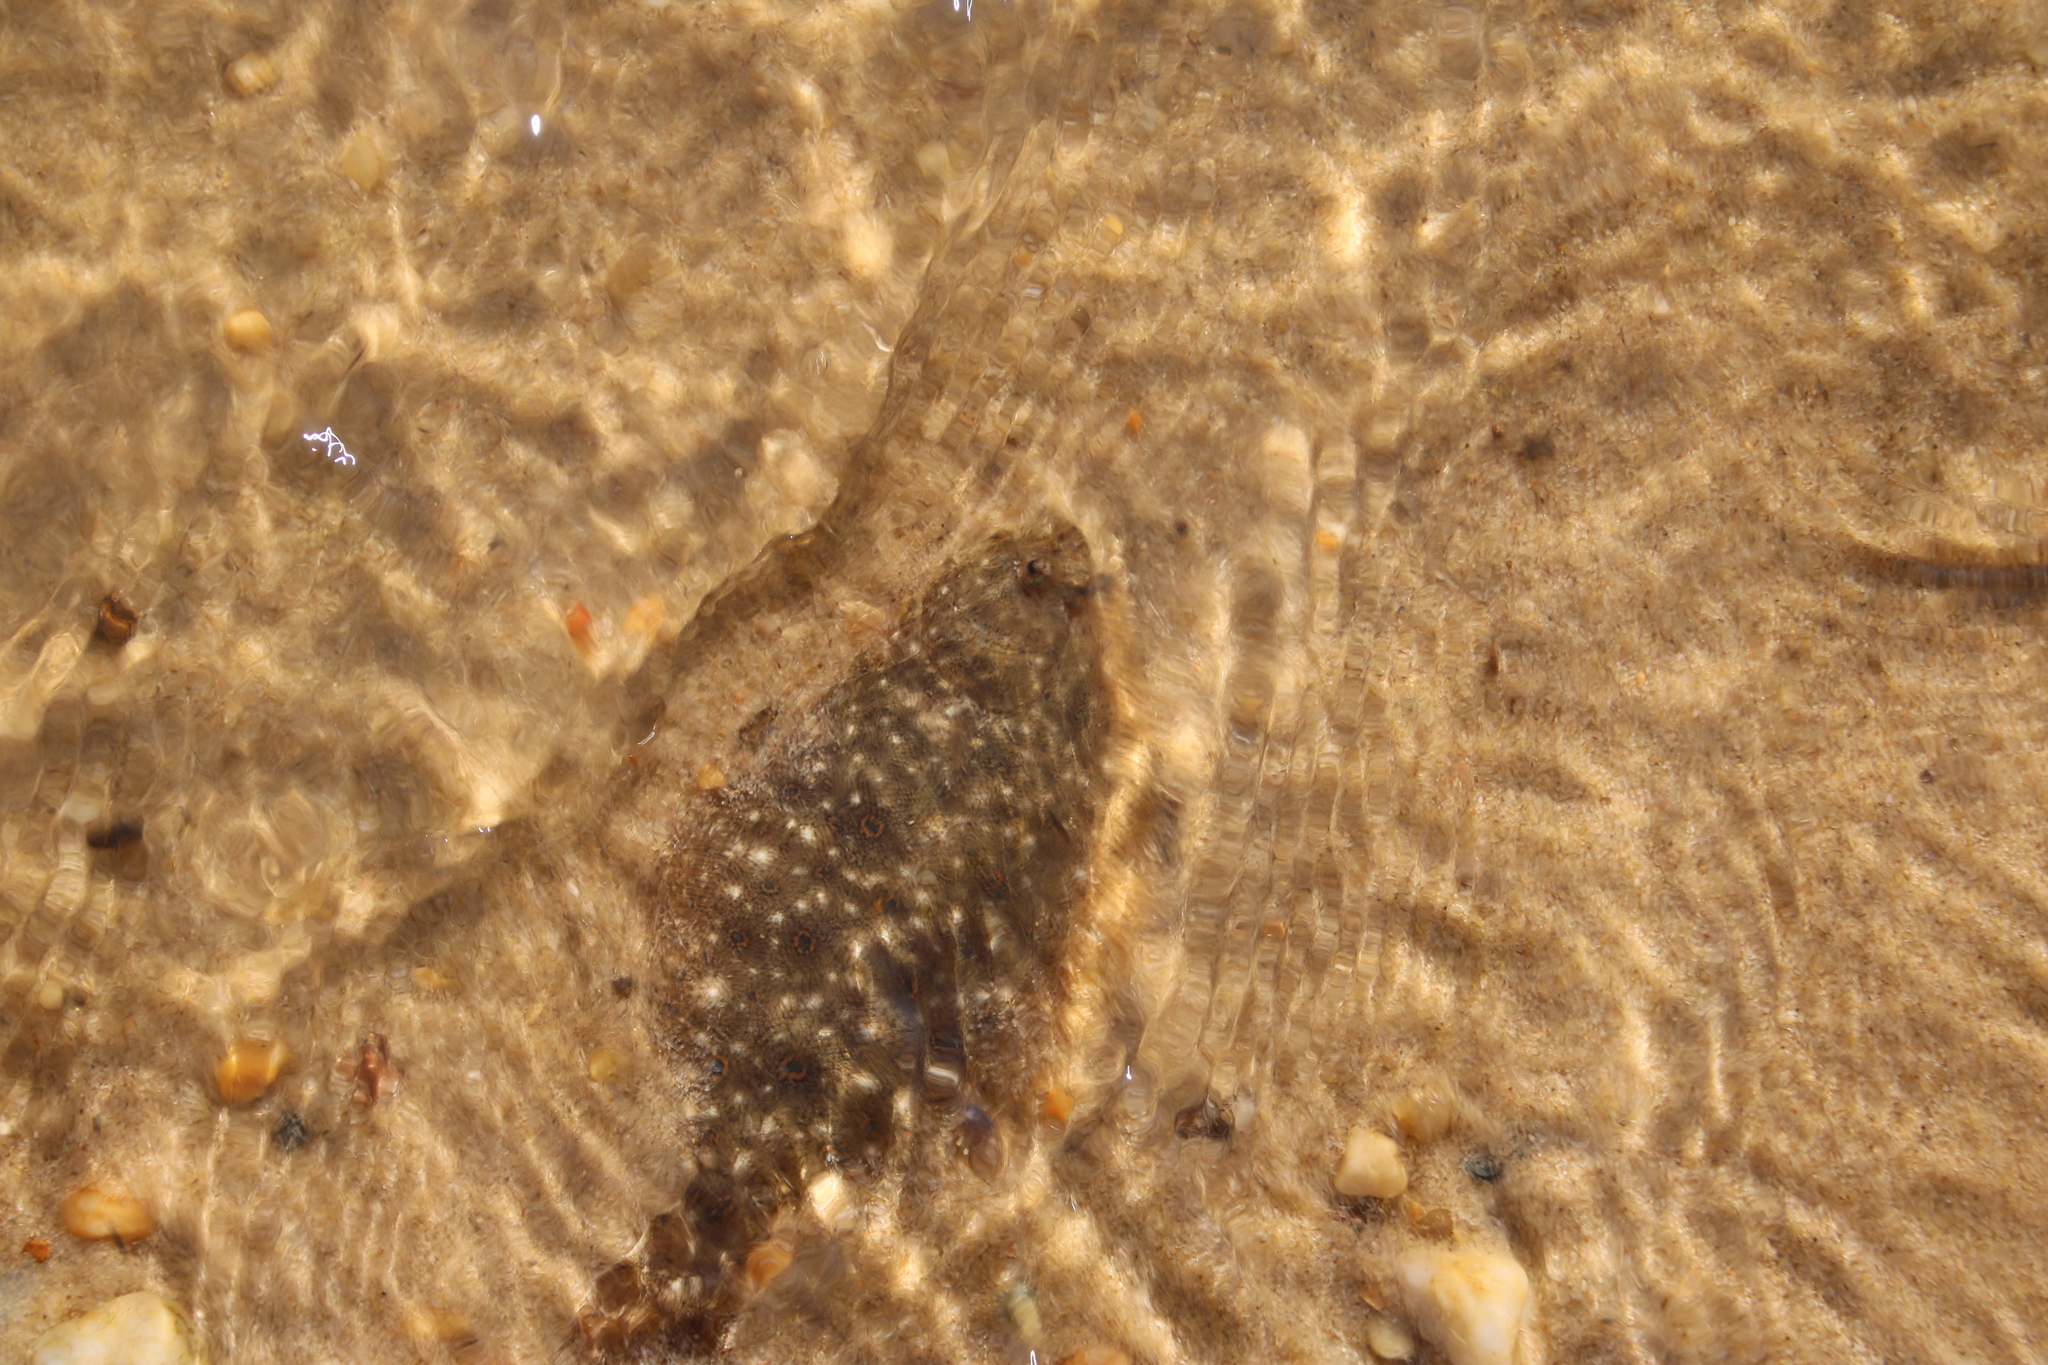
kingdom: Animalia
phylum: Chordata
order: Pleuronectiformes
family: Paralichthyidae
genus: Paralichthys
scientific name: Paralichthys dentatus
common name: Summer flounder
